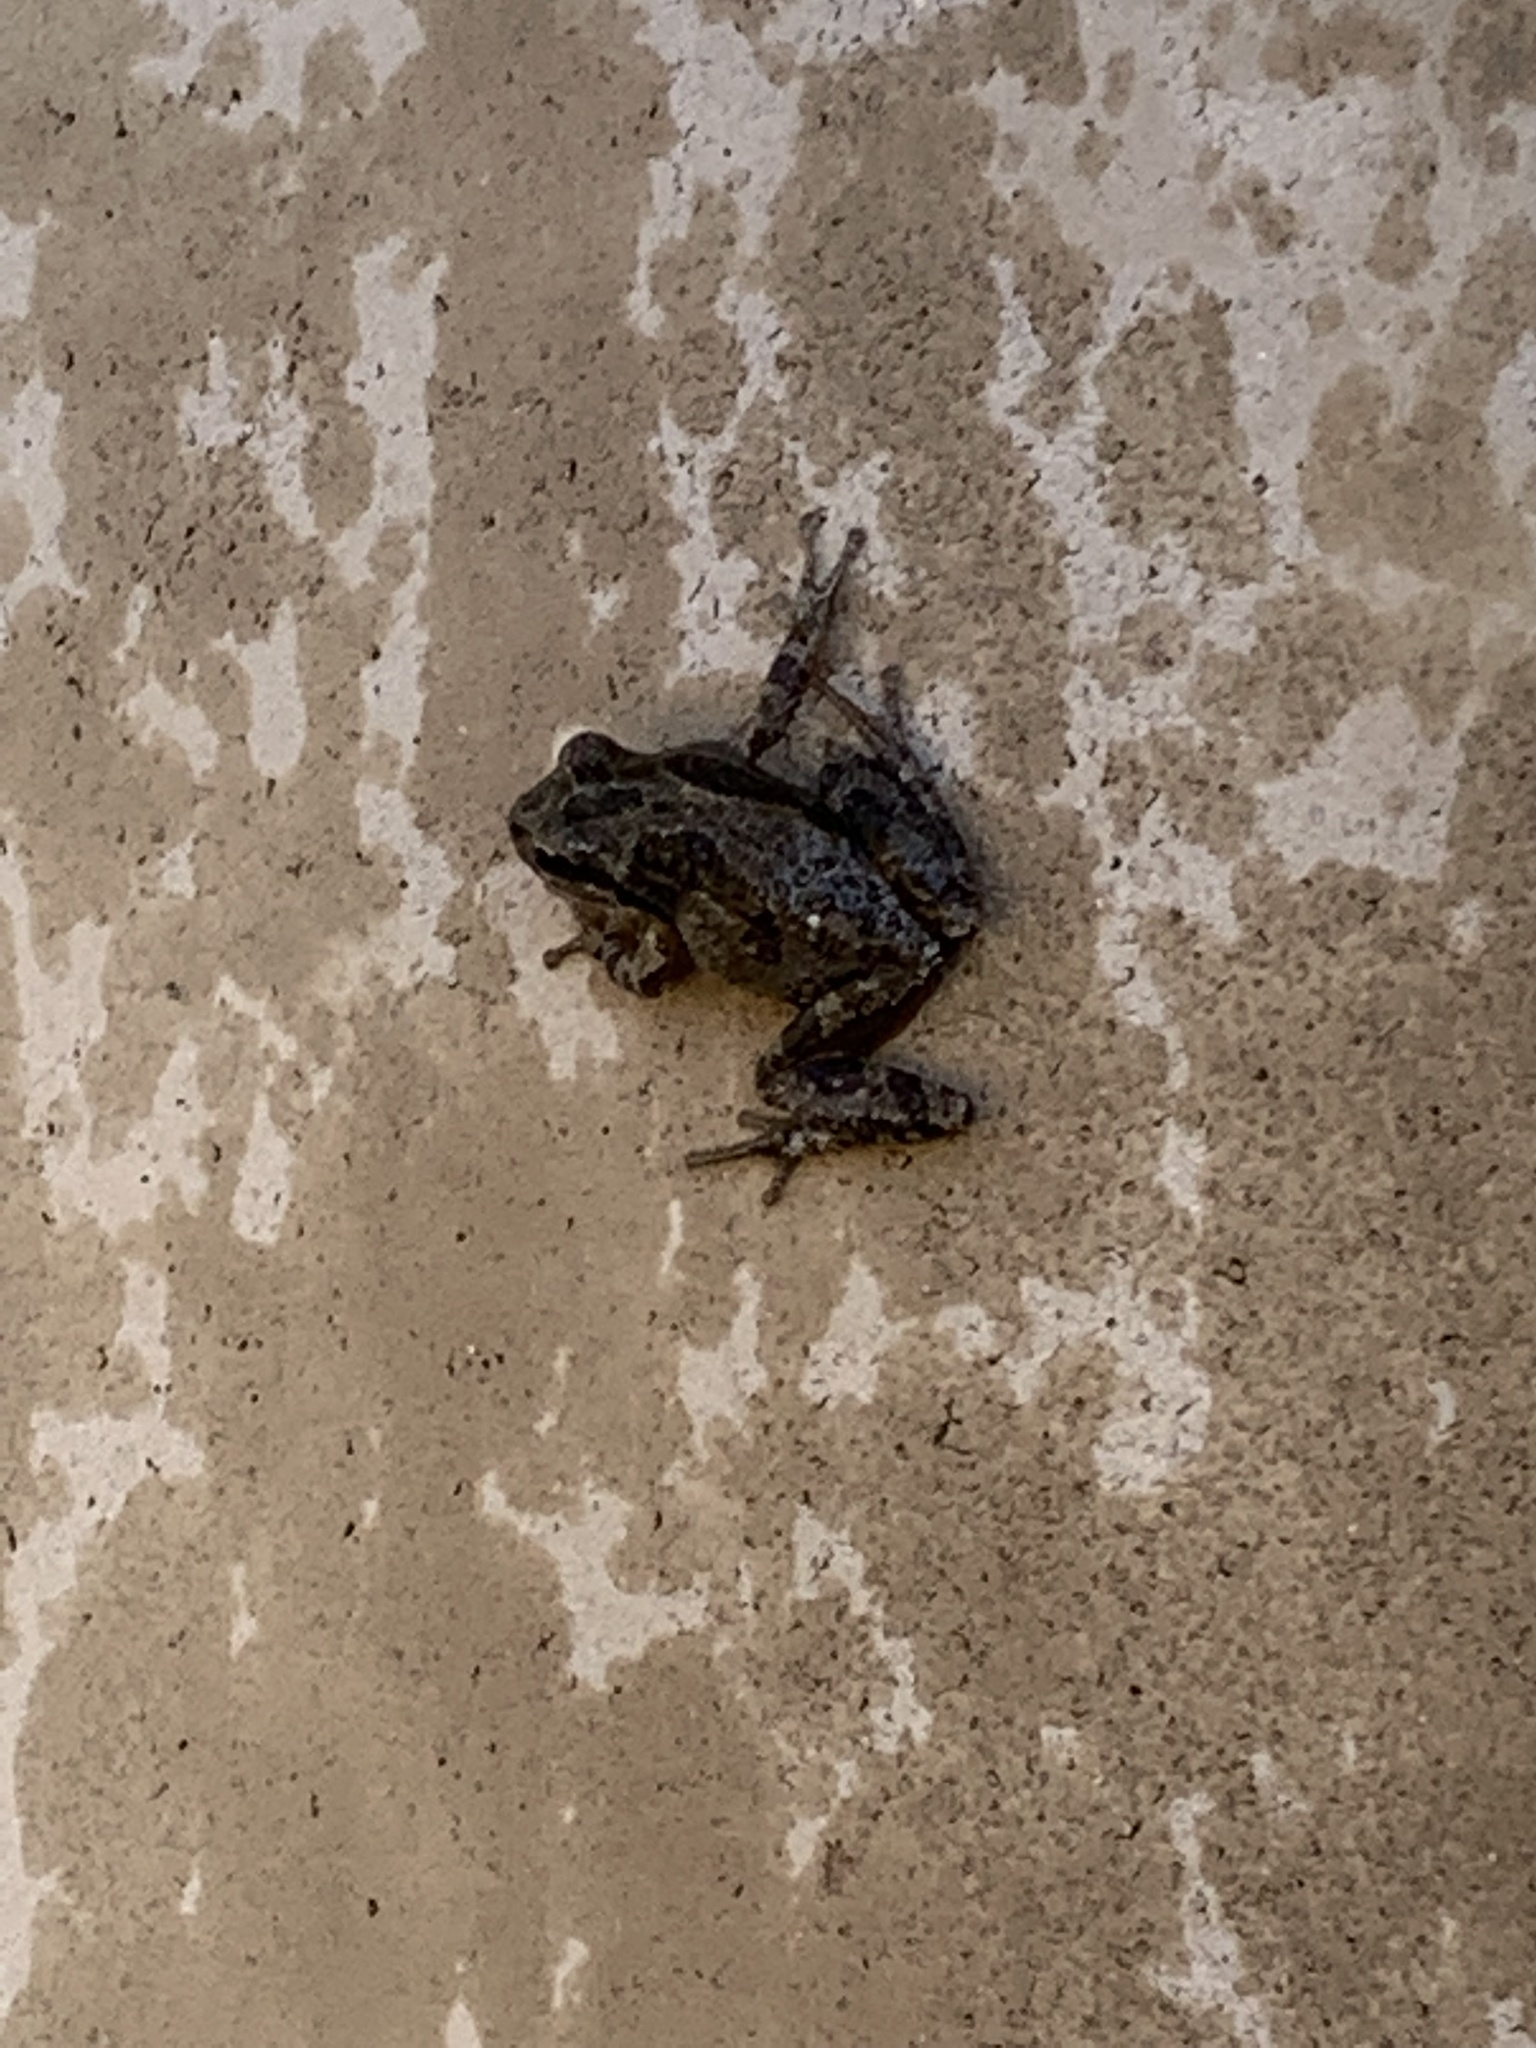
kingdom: Animalia
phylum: Chordata
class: Amphibia
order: Anura
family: Hylidae
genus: Pseudacris
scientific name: Pseudacris regilla
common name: Pacific chorus frog
